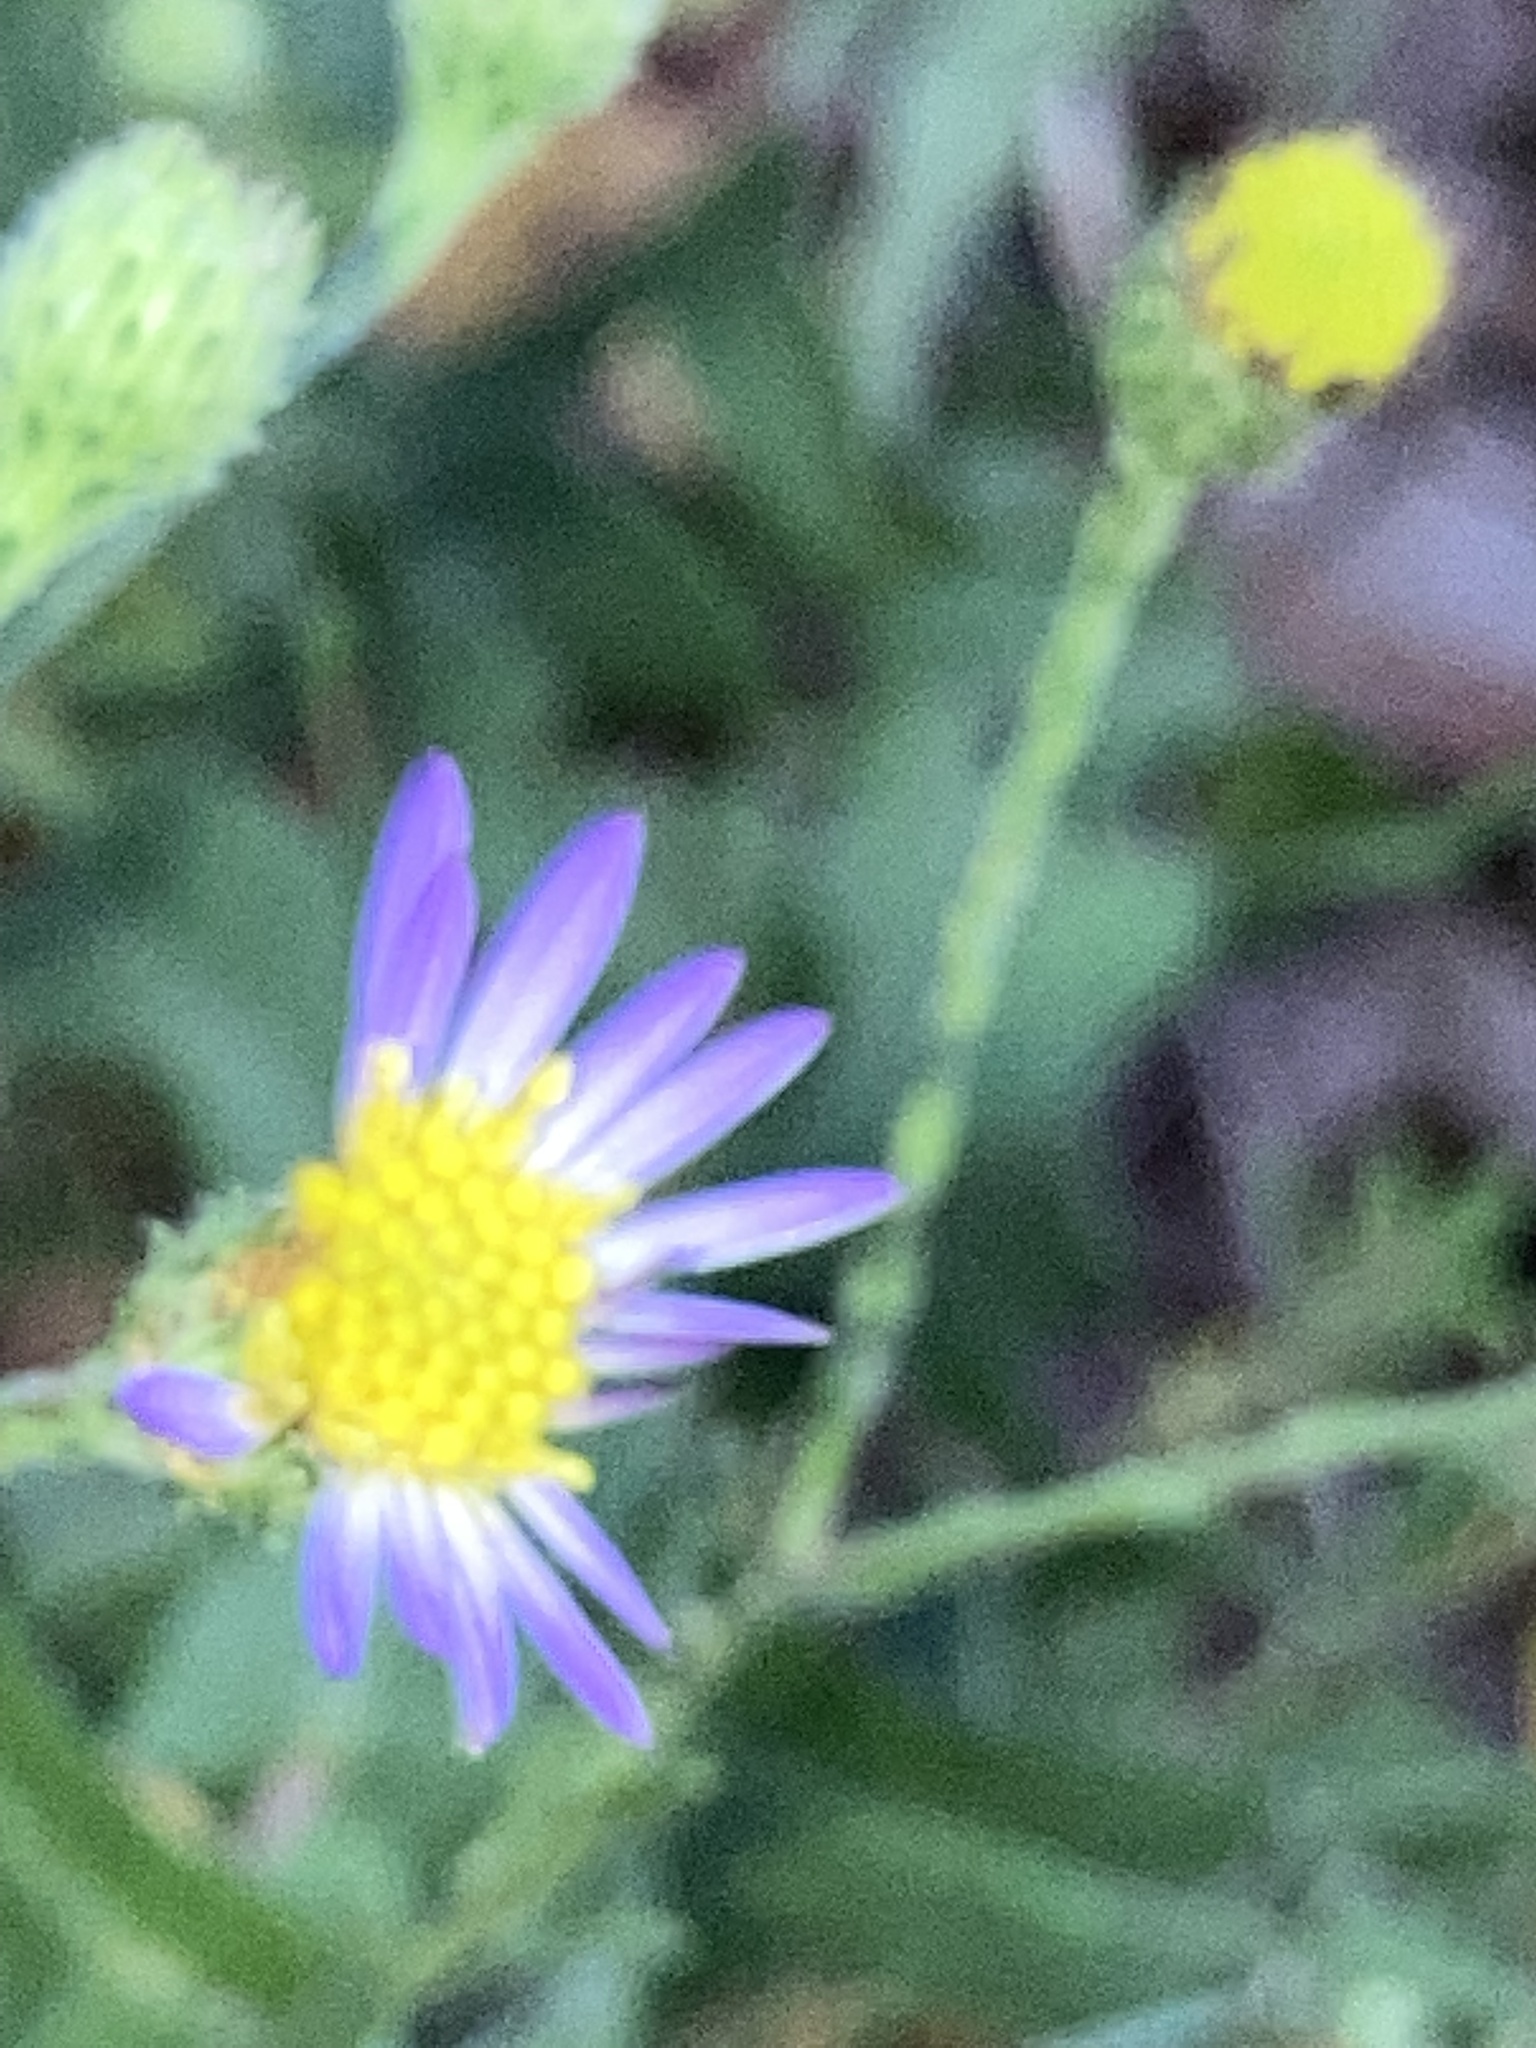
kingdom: Plantae
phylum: Tracheophyta
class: Magnoliopsida
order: Asterales
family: Asteraceae
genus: Symphyotrichum
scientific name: Symphyotrichum patens
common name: Late purple aster
